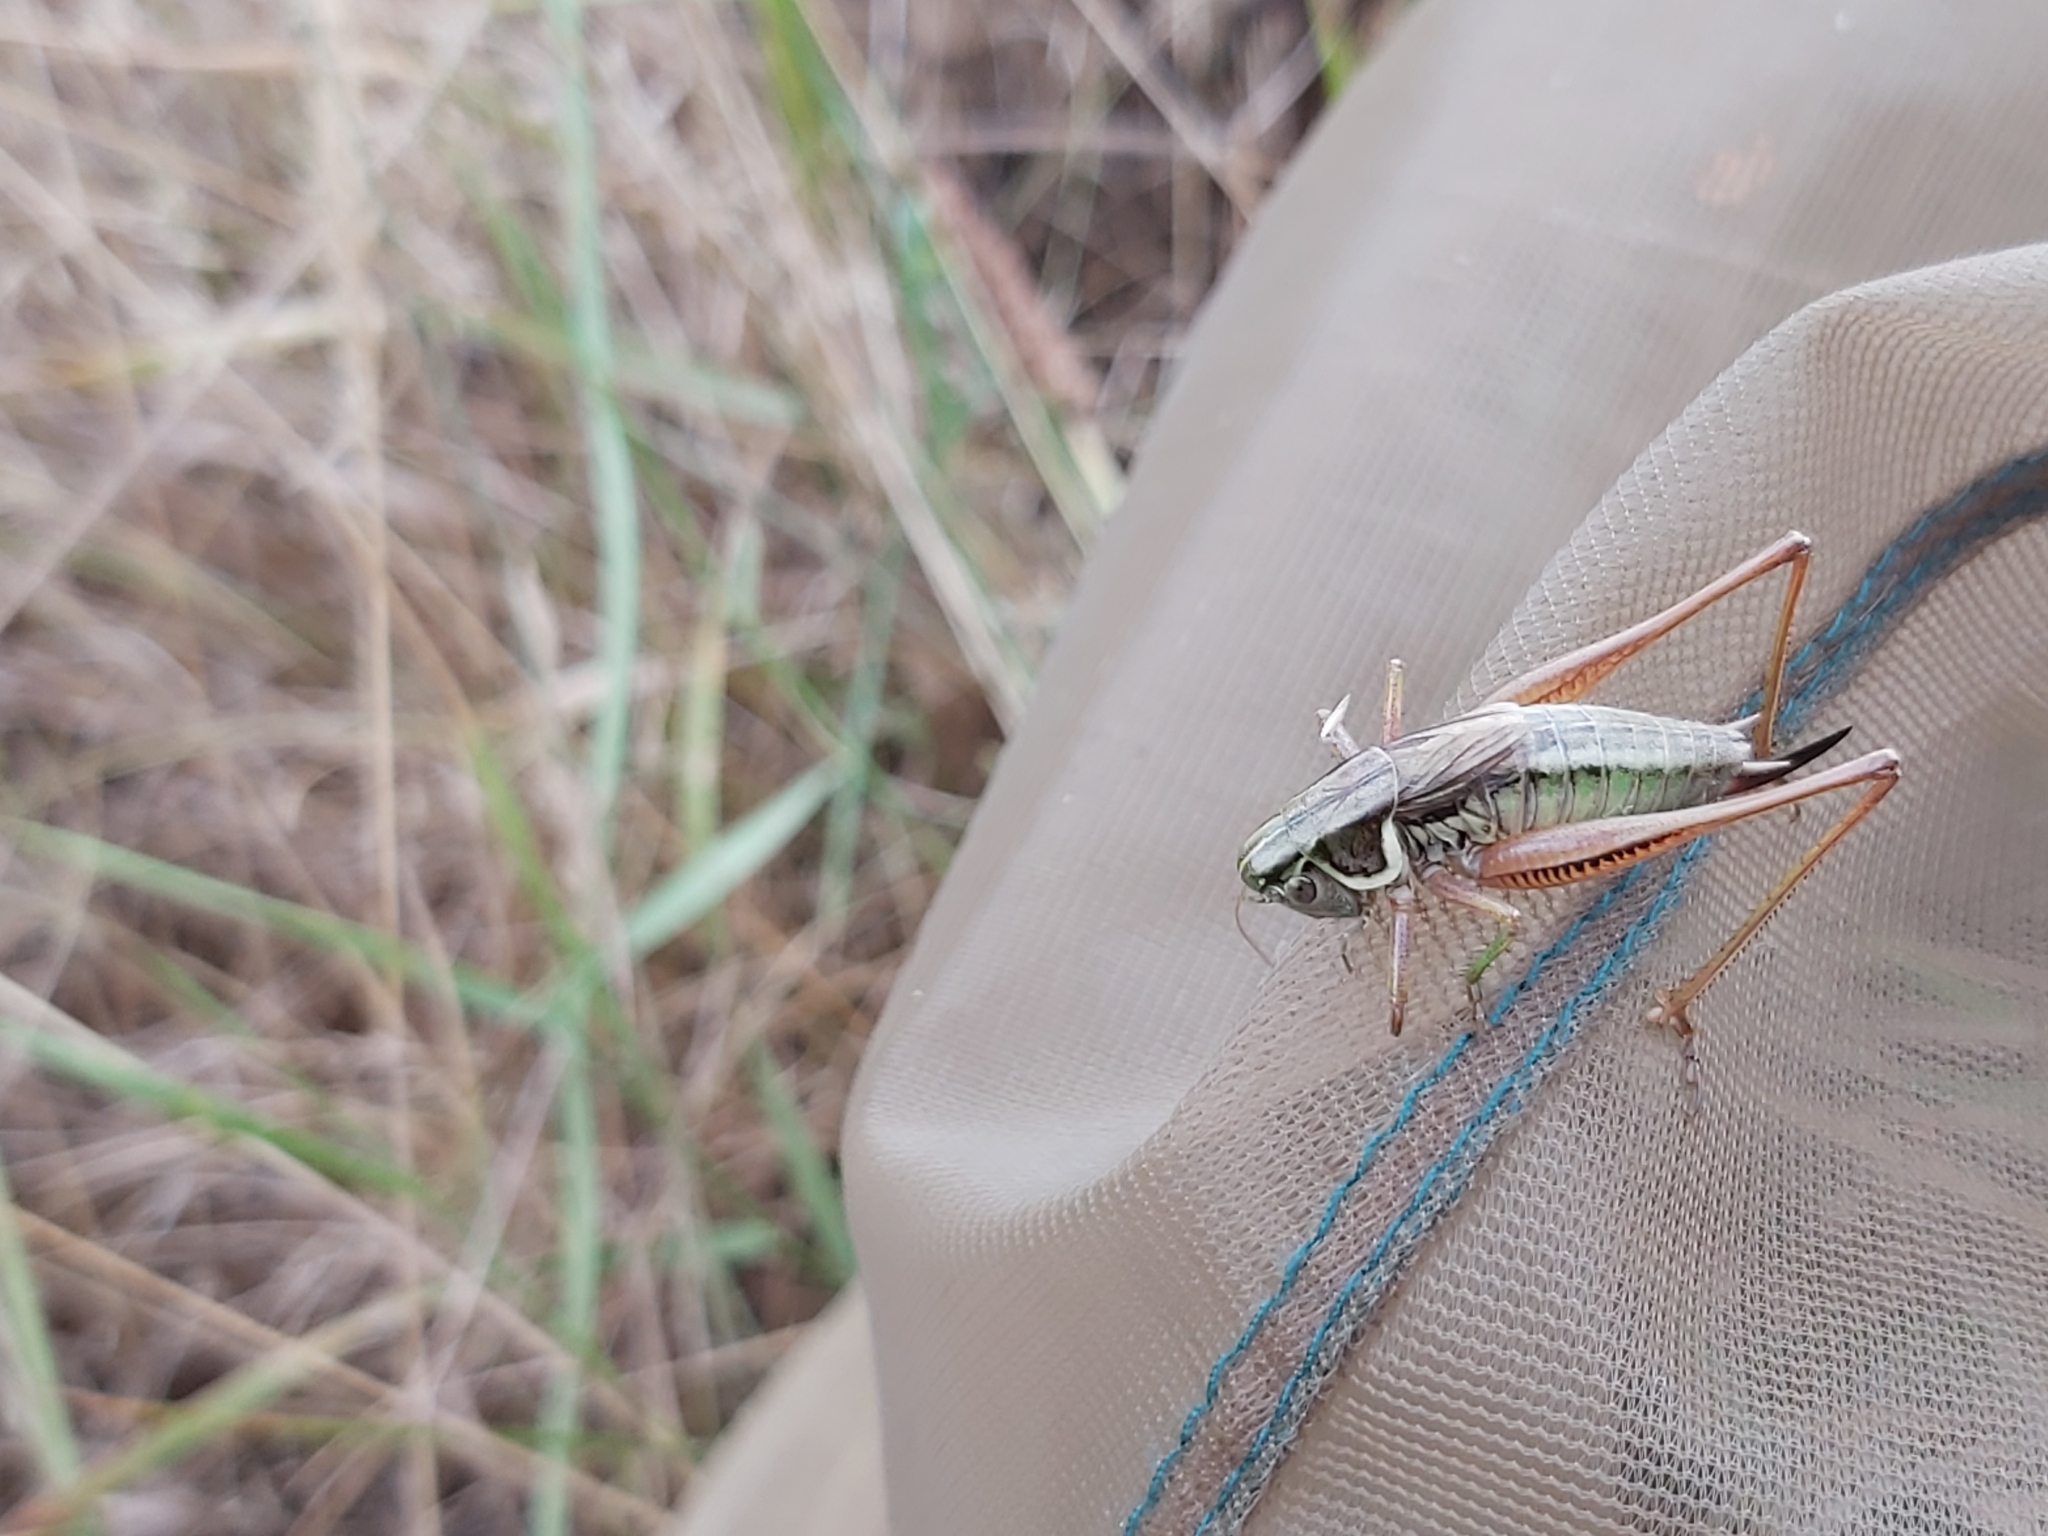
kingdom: Animalia
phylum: Arthropoda
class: Insecta
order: Orthoptera
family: Tettigoniidae
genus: Roeseliana
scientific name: Roeseliana roeselii
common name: Roesel's bush cricket
